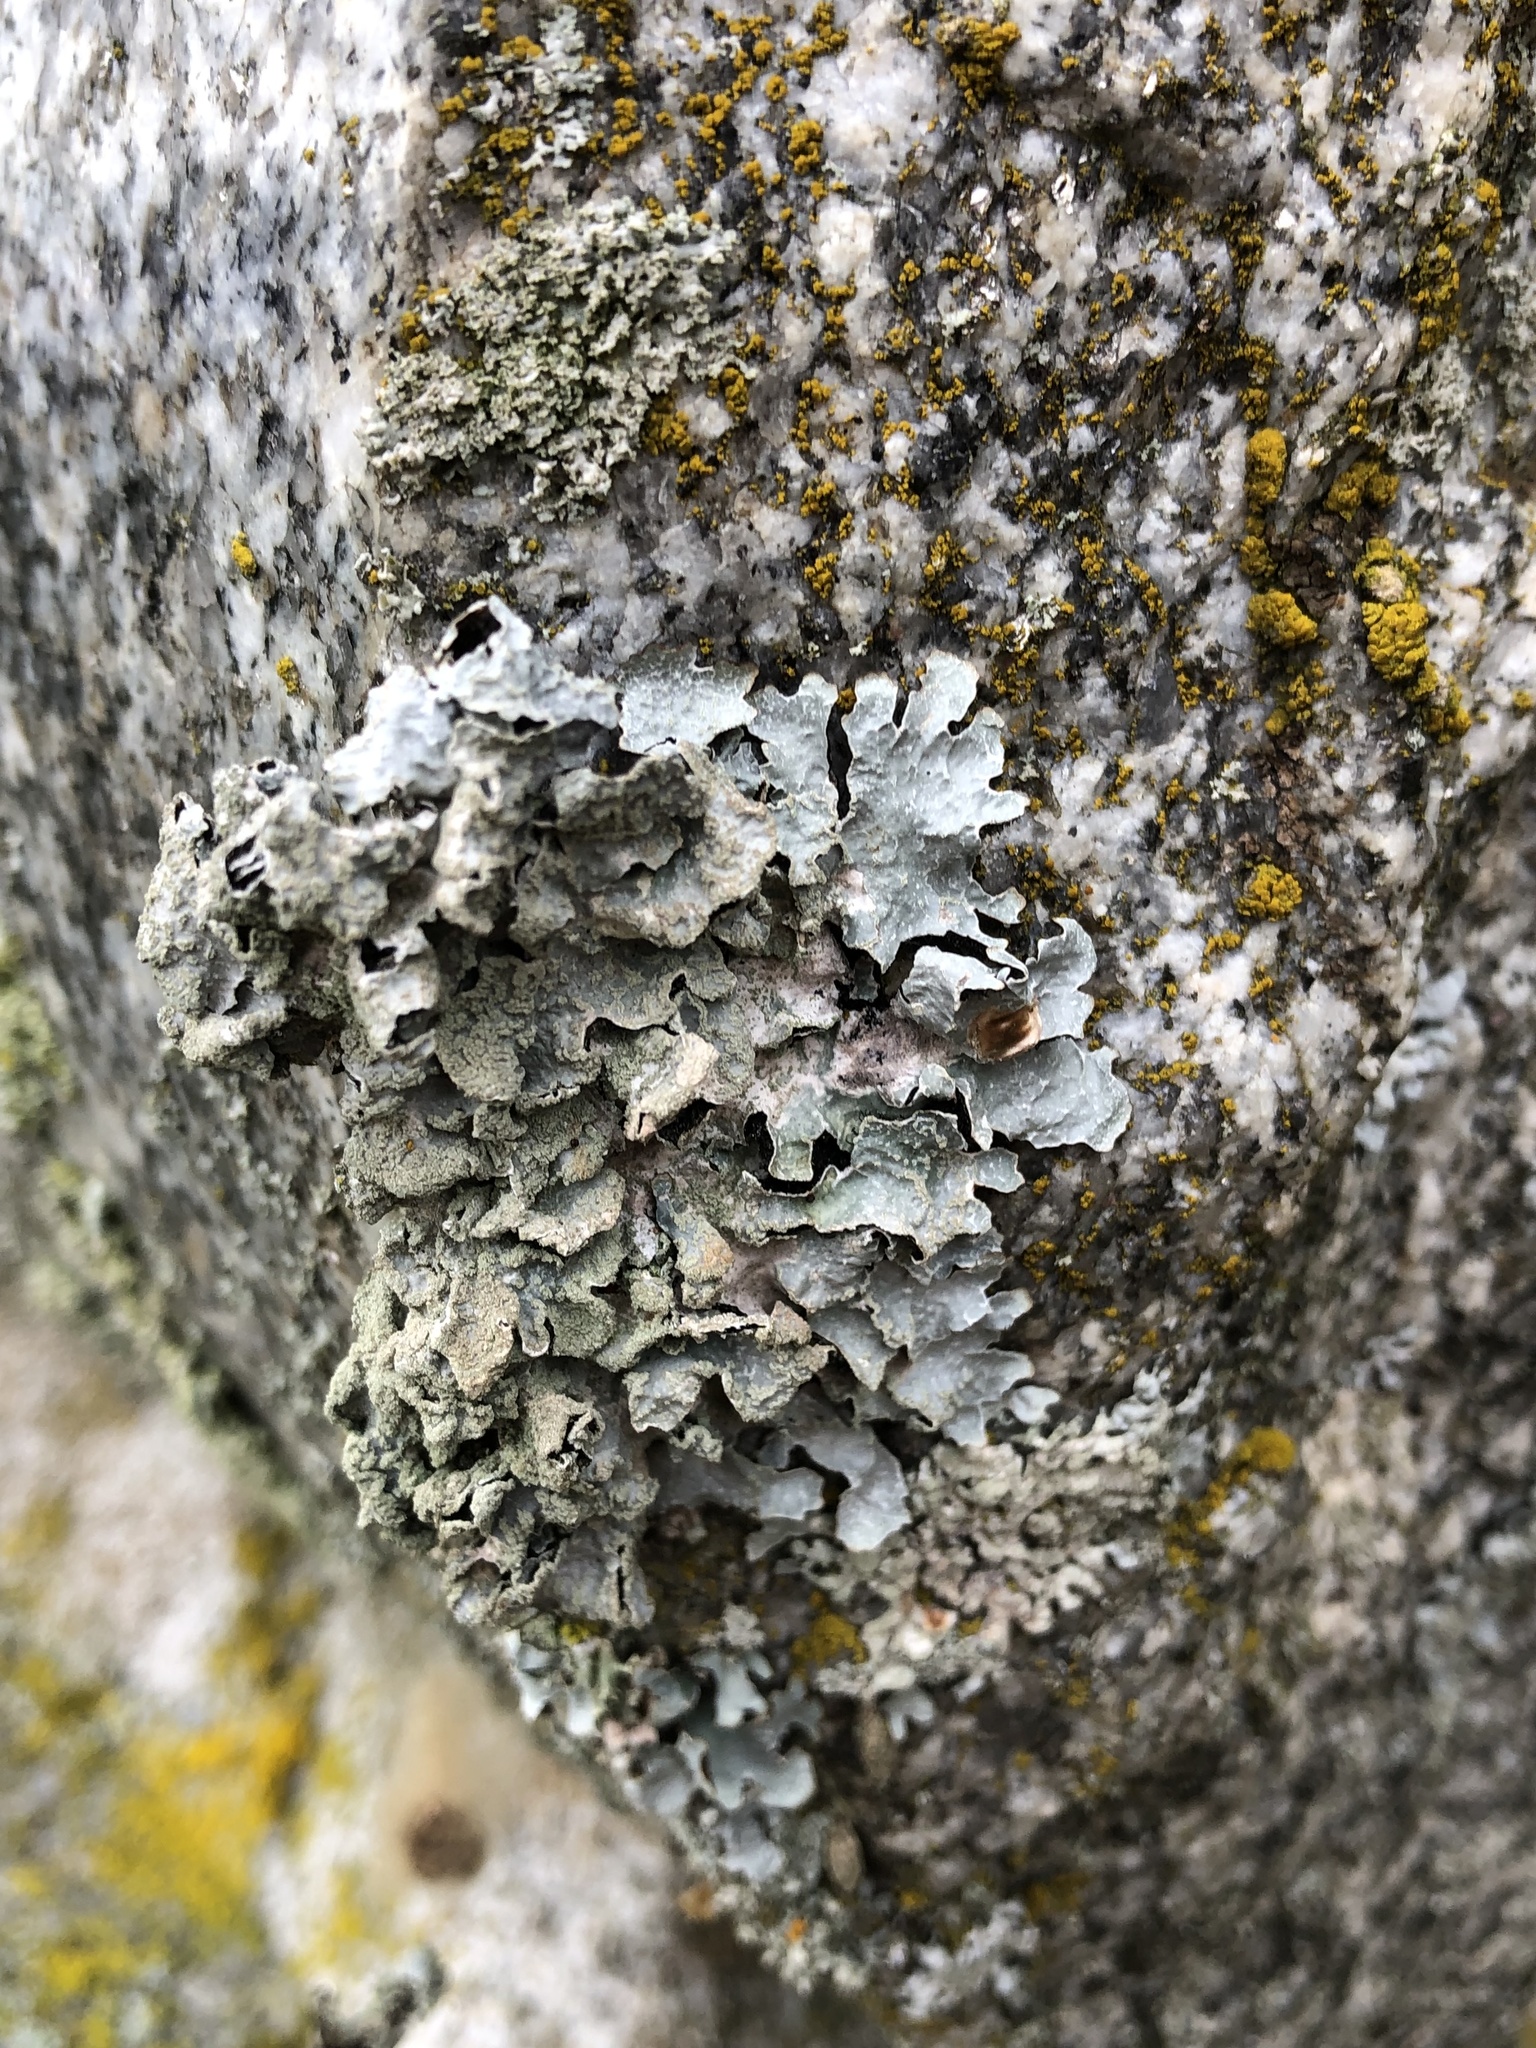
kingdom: Fungi
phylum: Ascomycota
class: Lecanoromycetes
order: Lecanorales
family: Parmeliaceae
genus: Parmelia
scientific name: Parmelia sulcata
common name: Netted shield lichen
